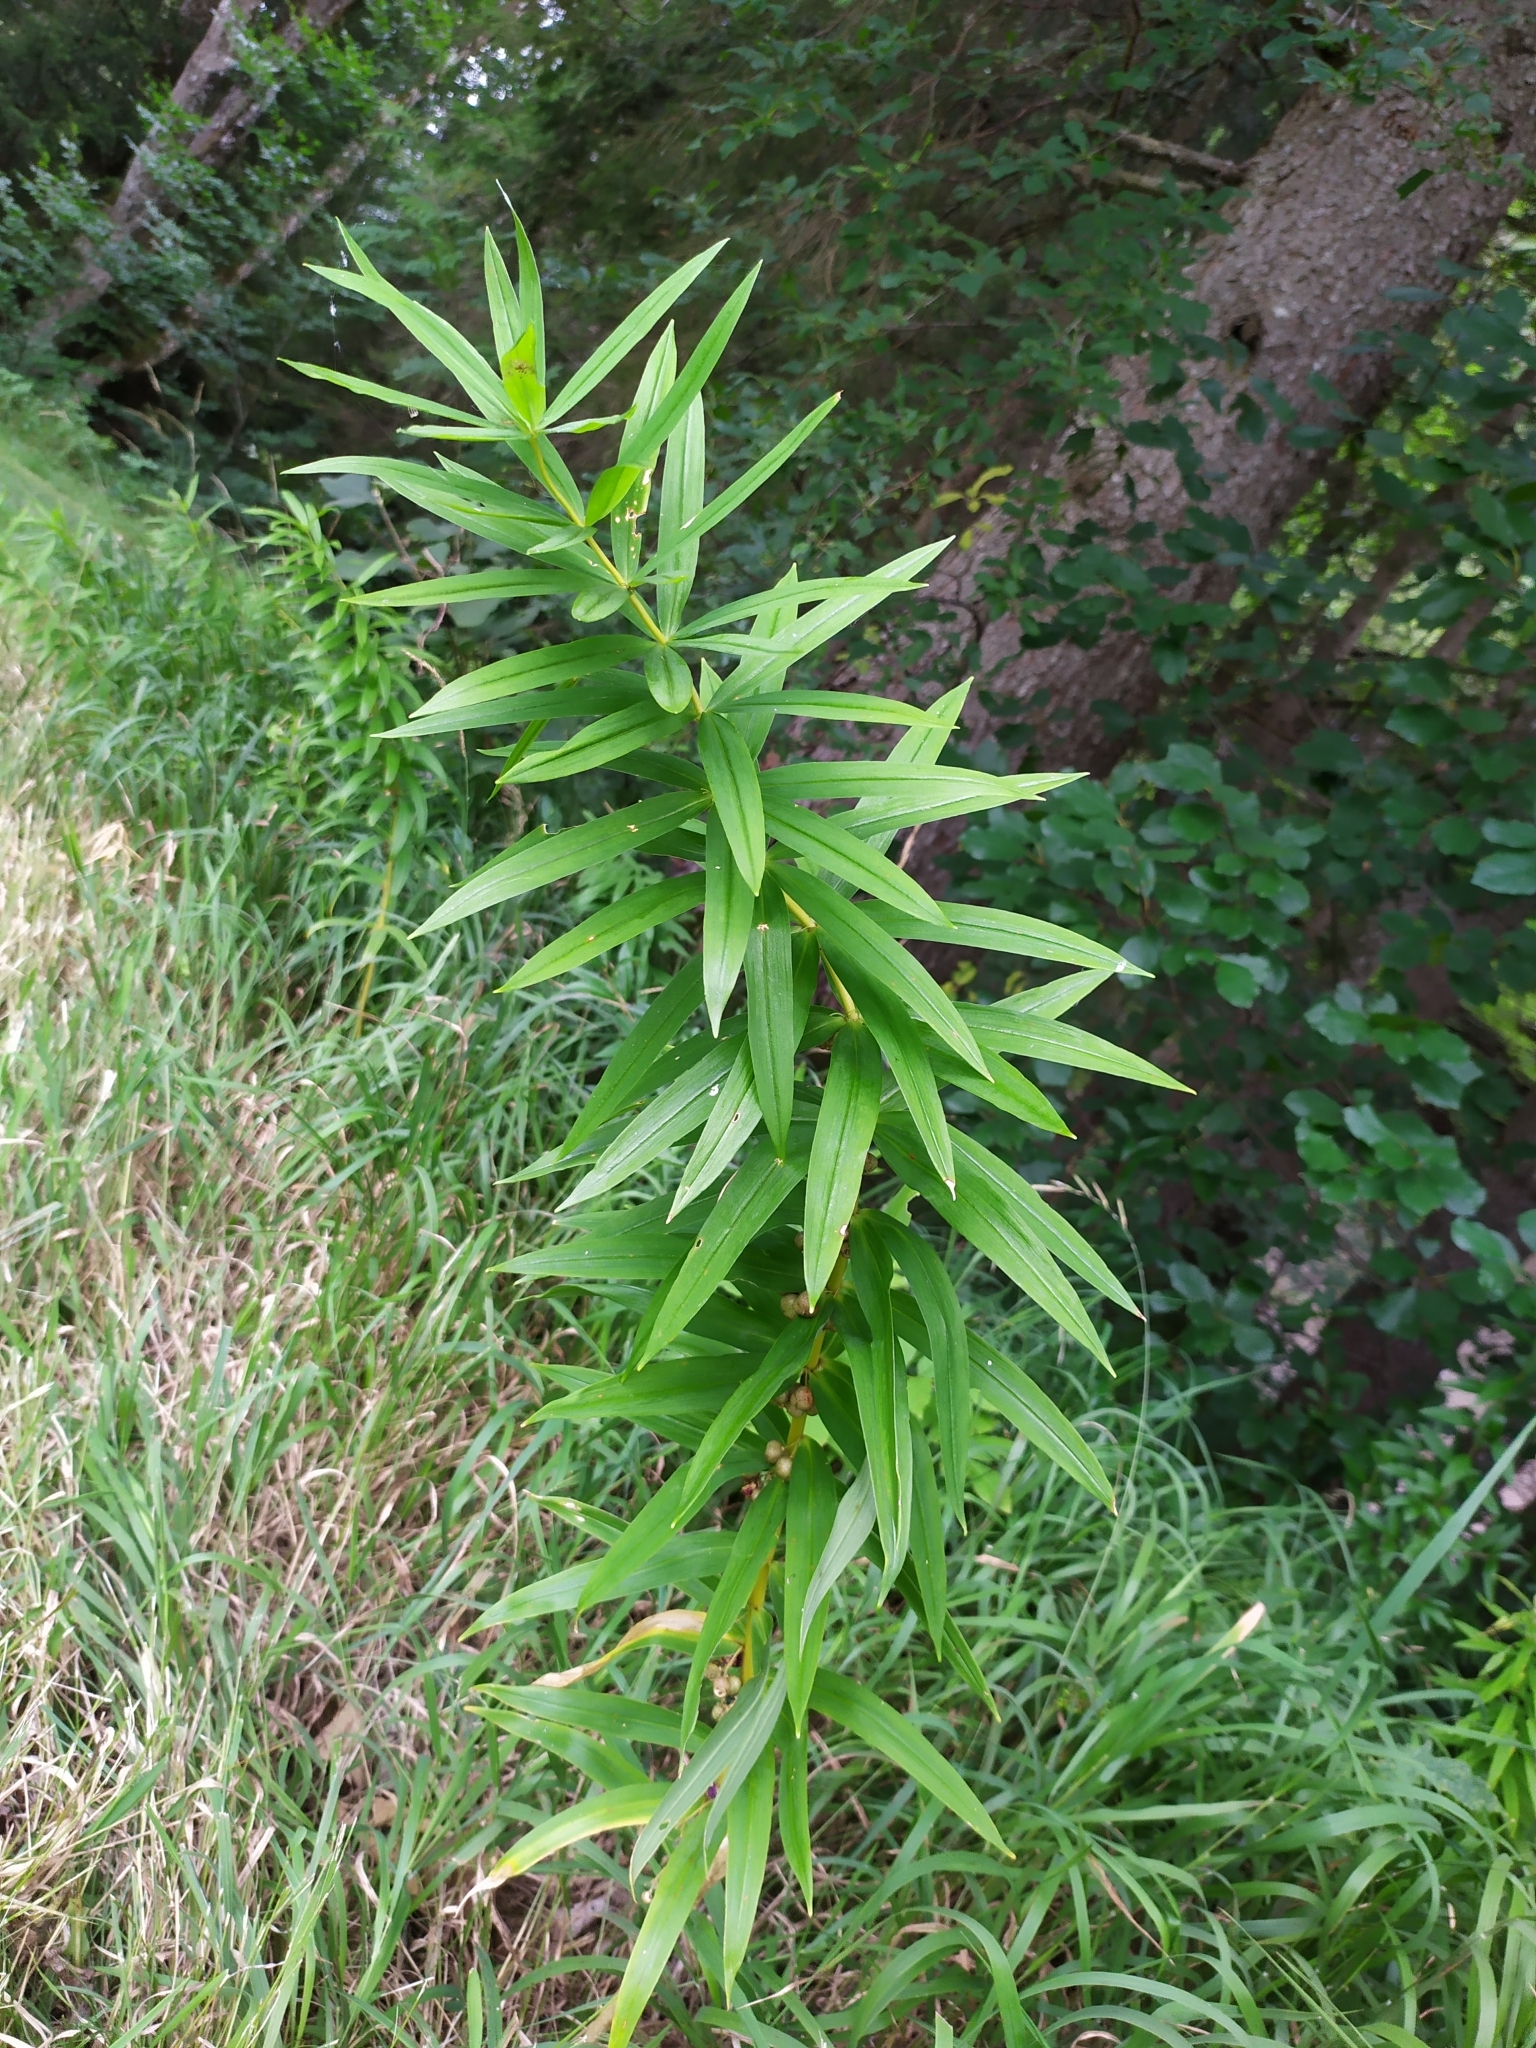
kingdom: Plantae
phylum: Tracheophyta
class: Liliopsida
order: Asparagales
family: Asparagaceae
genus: Polygonatum
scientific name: Polygonatum verticillatum
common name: Whorled solomon's-seal
